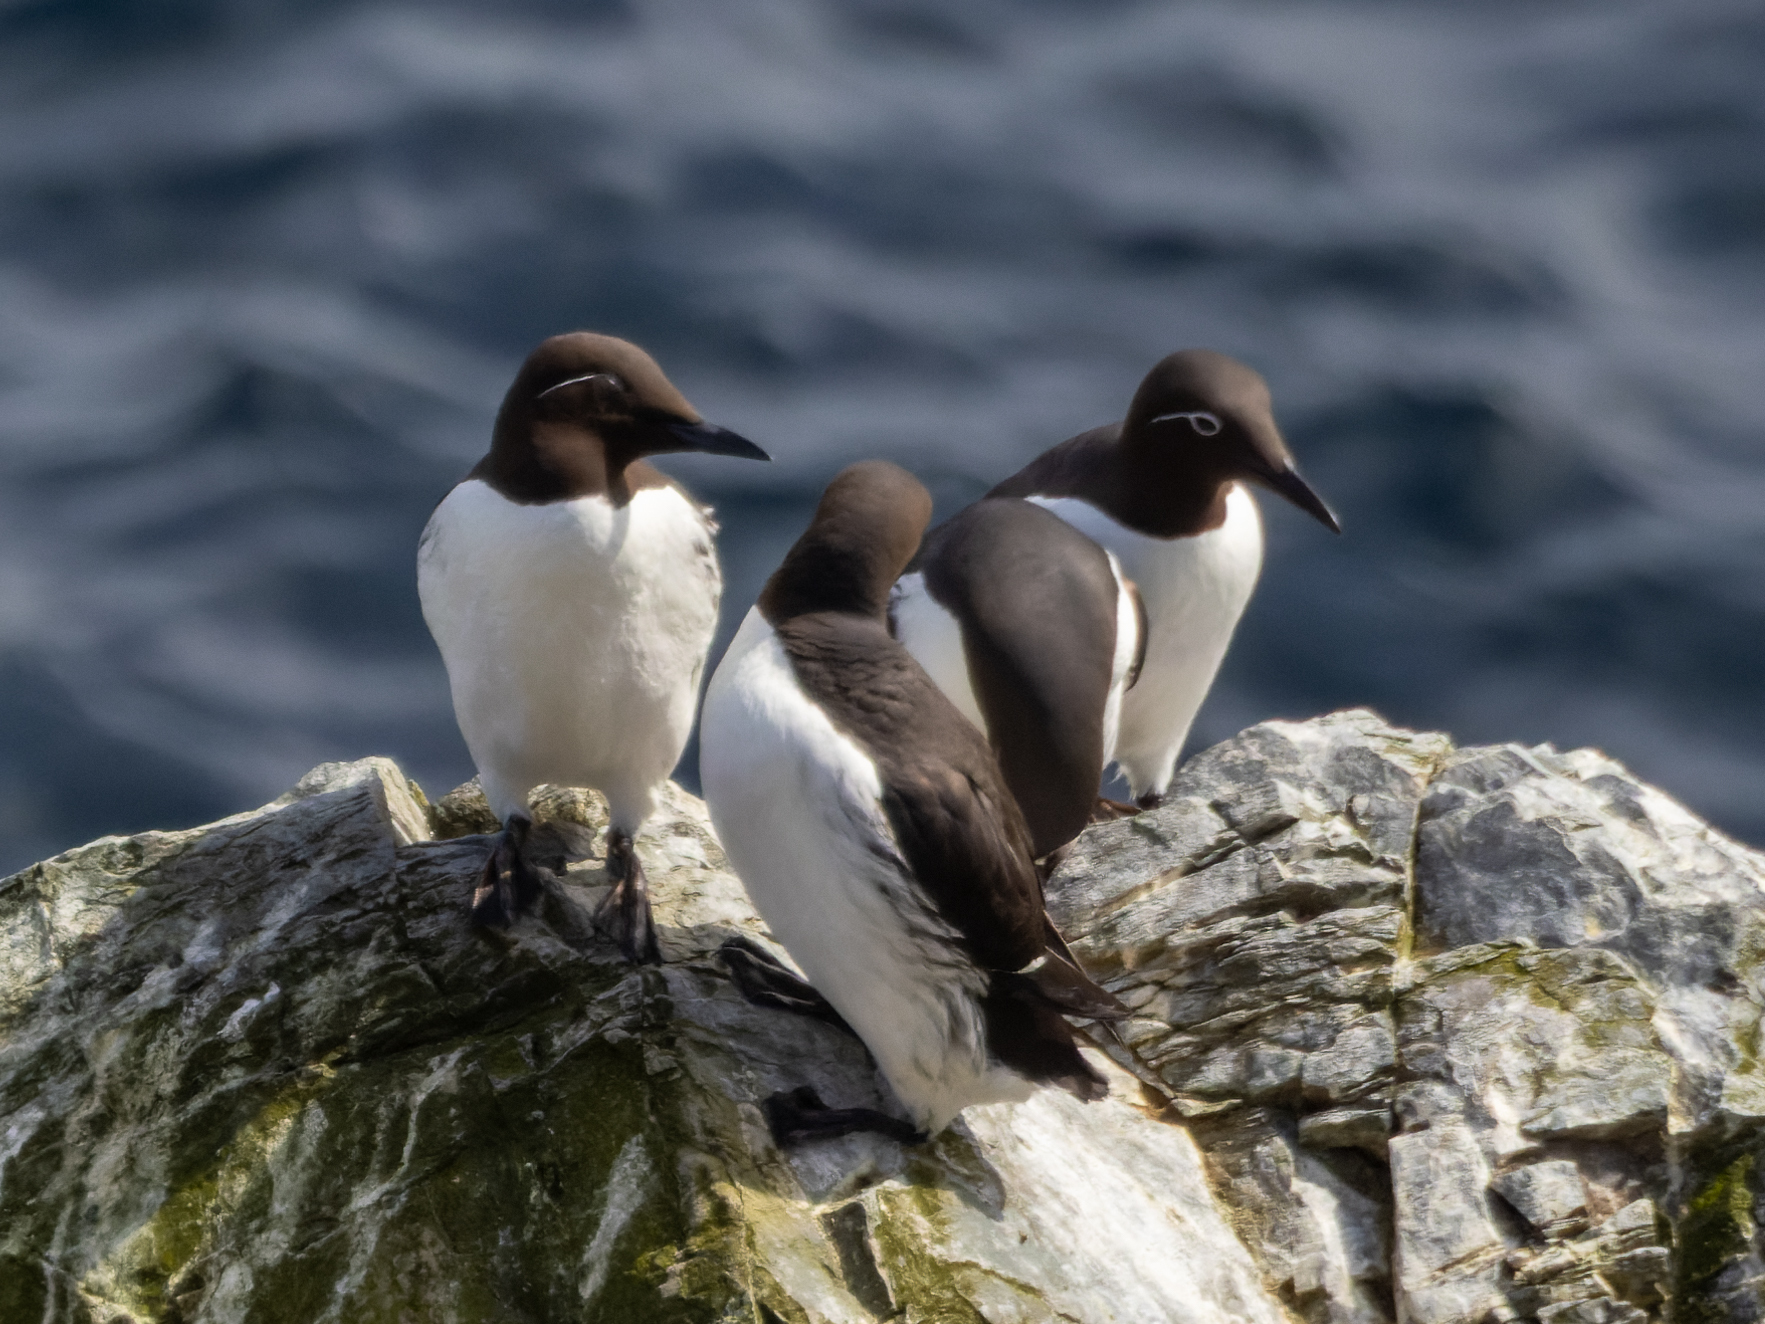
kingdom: Animalia
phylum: Chordata
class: Aves
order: Charadriiformes
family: Alcidae
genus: Uria
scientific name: Uria aalge
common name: Common murre
